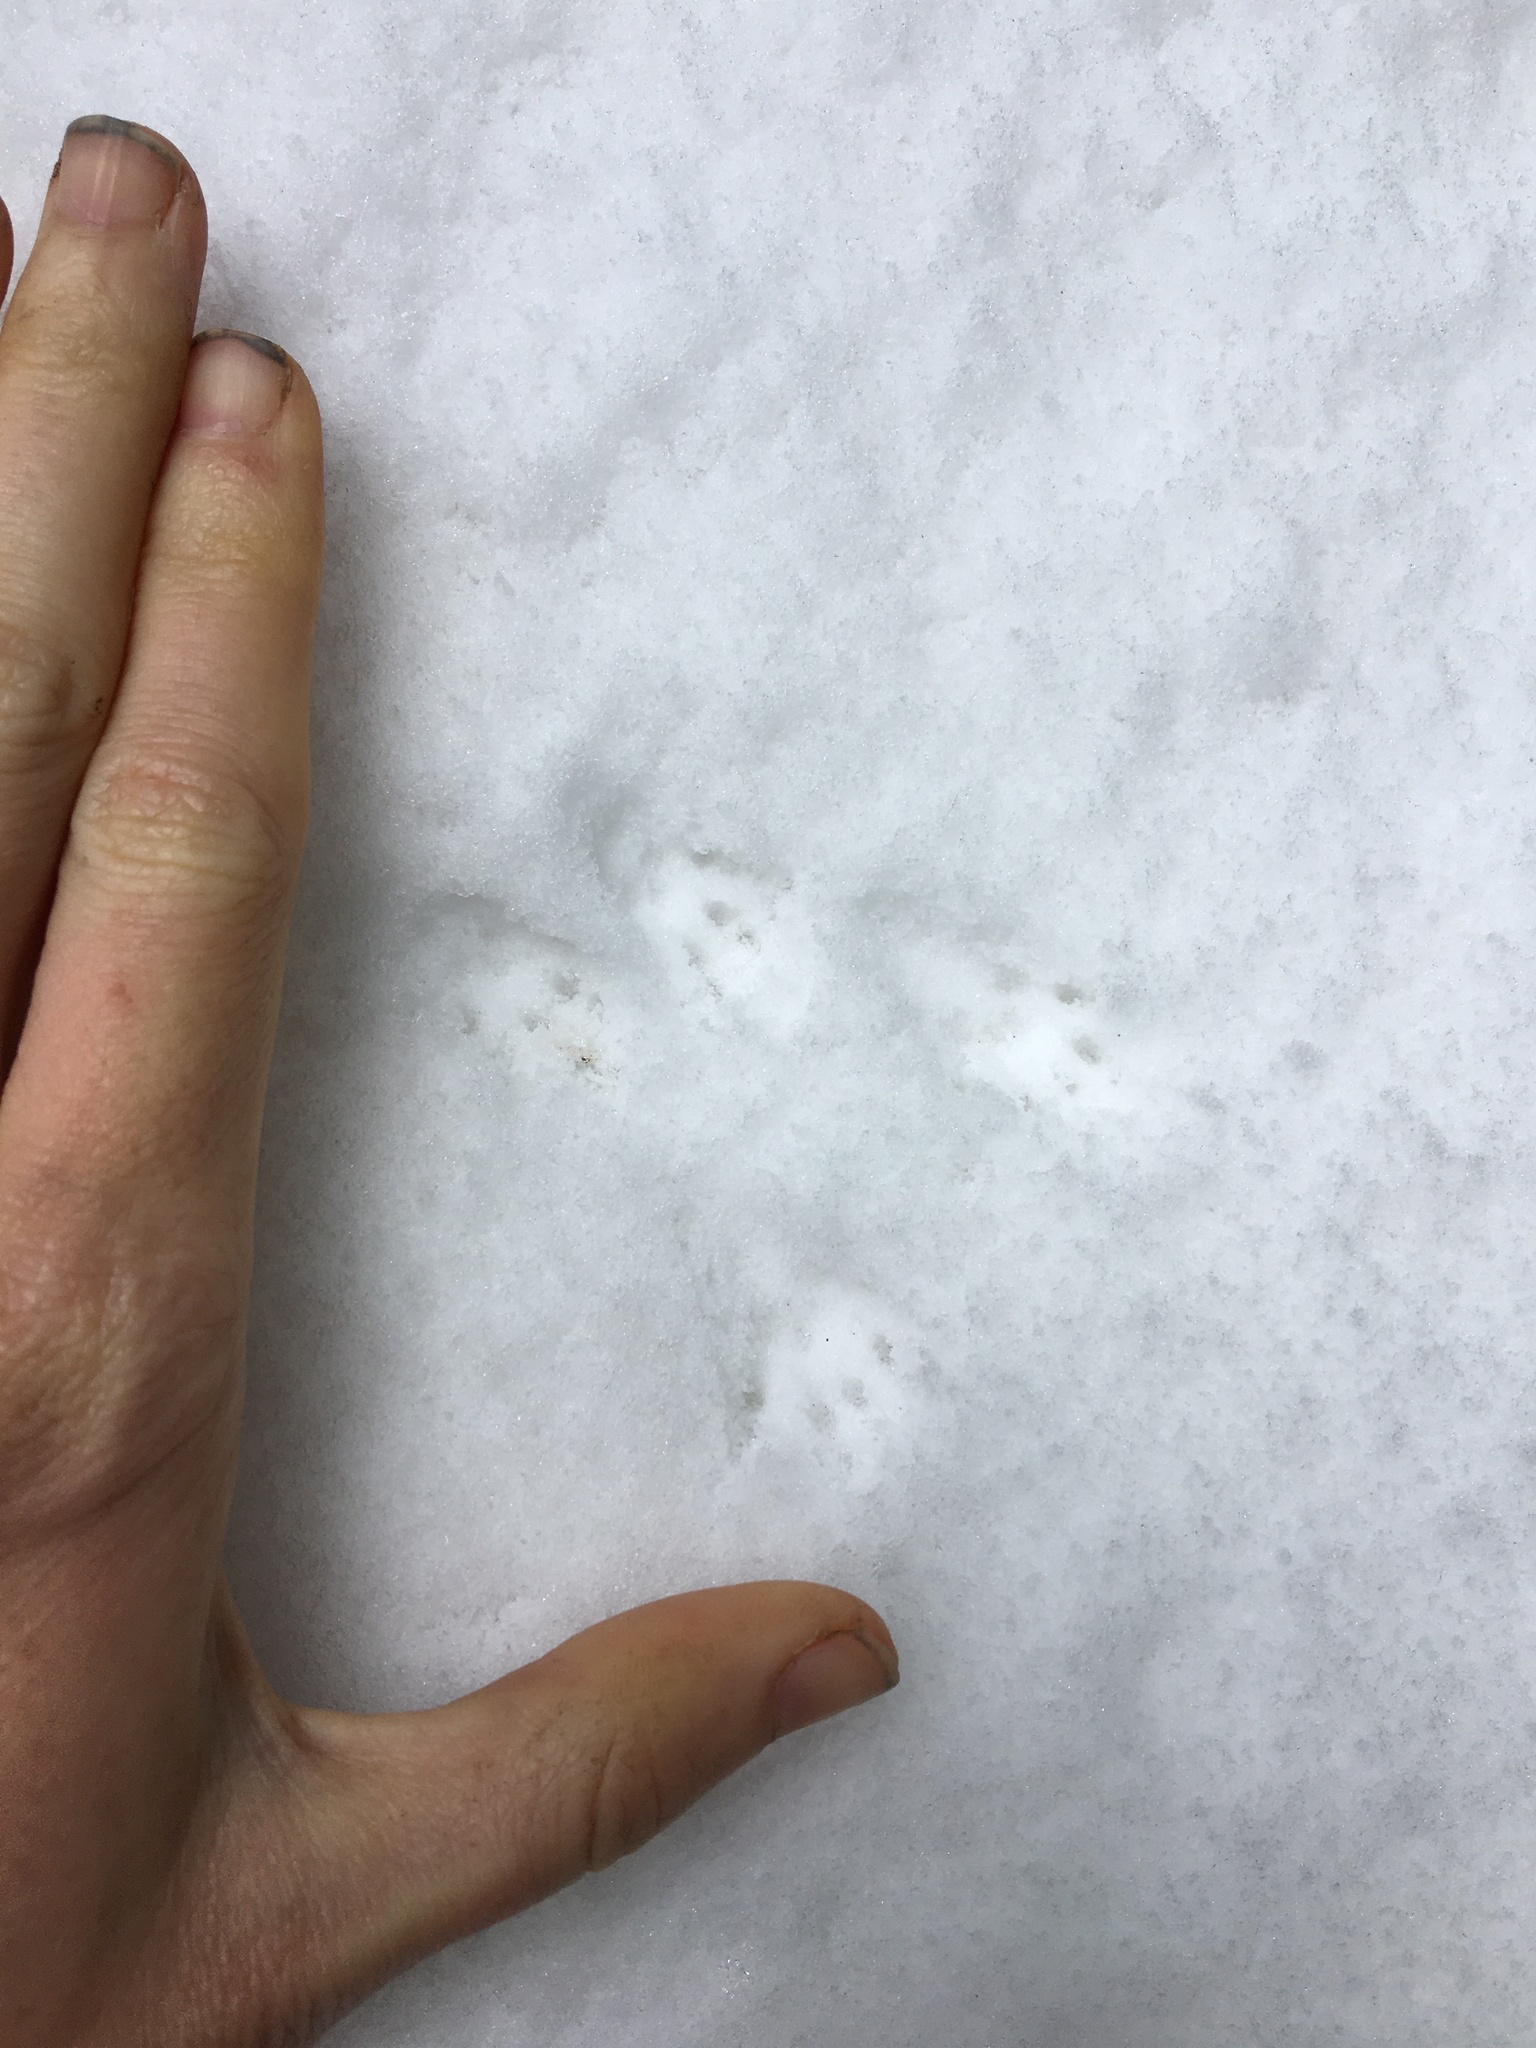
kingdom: Animalia
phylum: Chordata
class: Mammalia
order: Rodentia
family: Sciuridae
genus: Tamias
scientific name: Tamias townsendii
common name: Townsend's chipmunk
